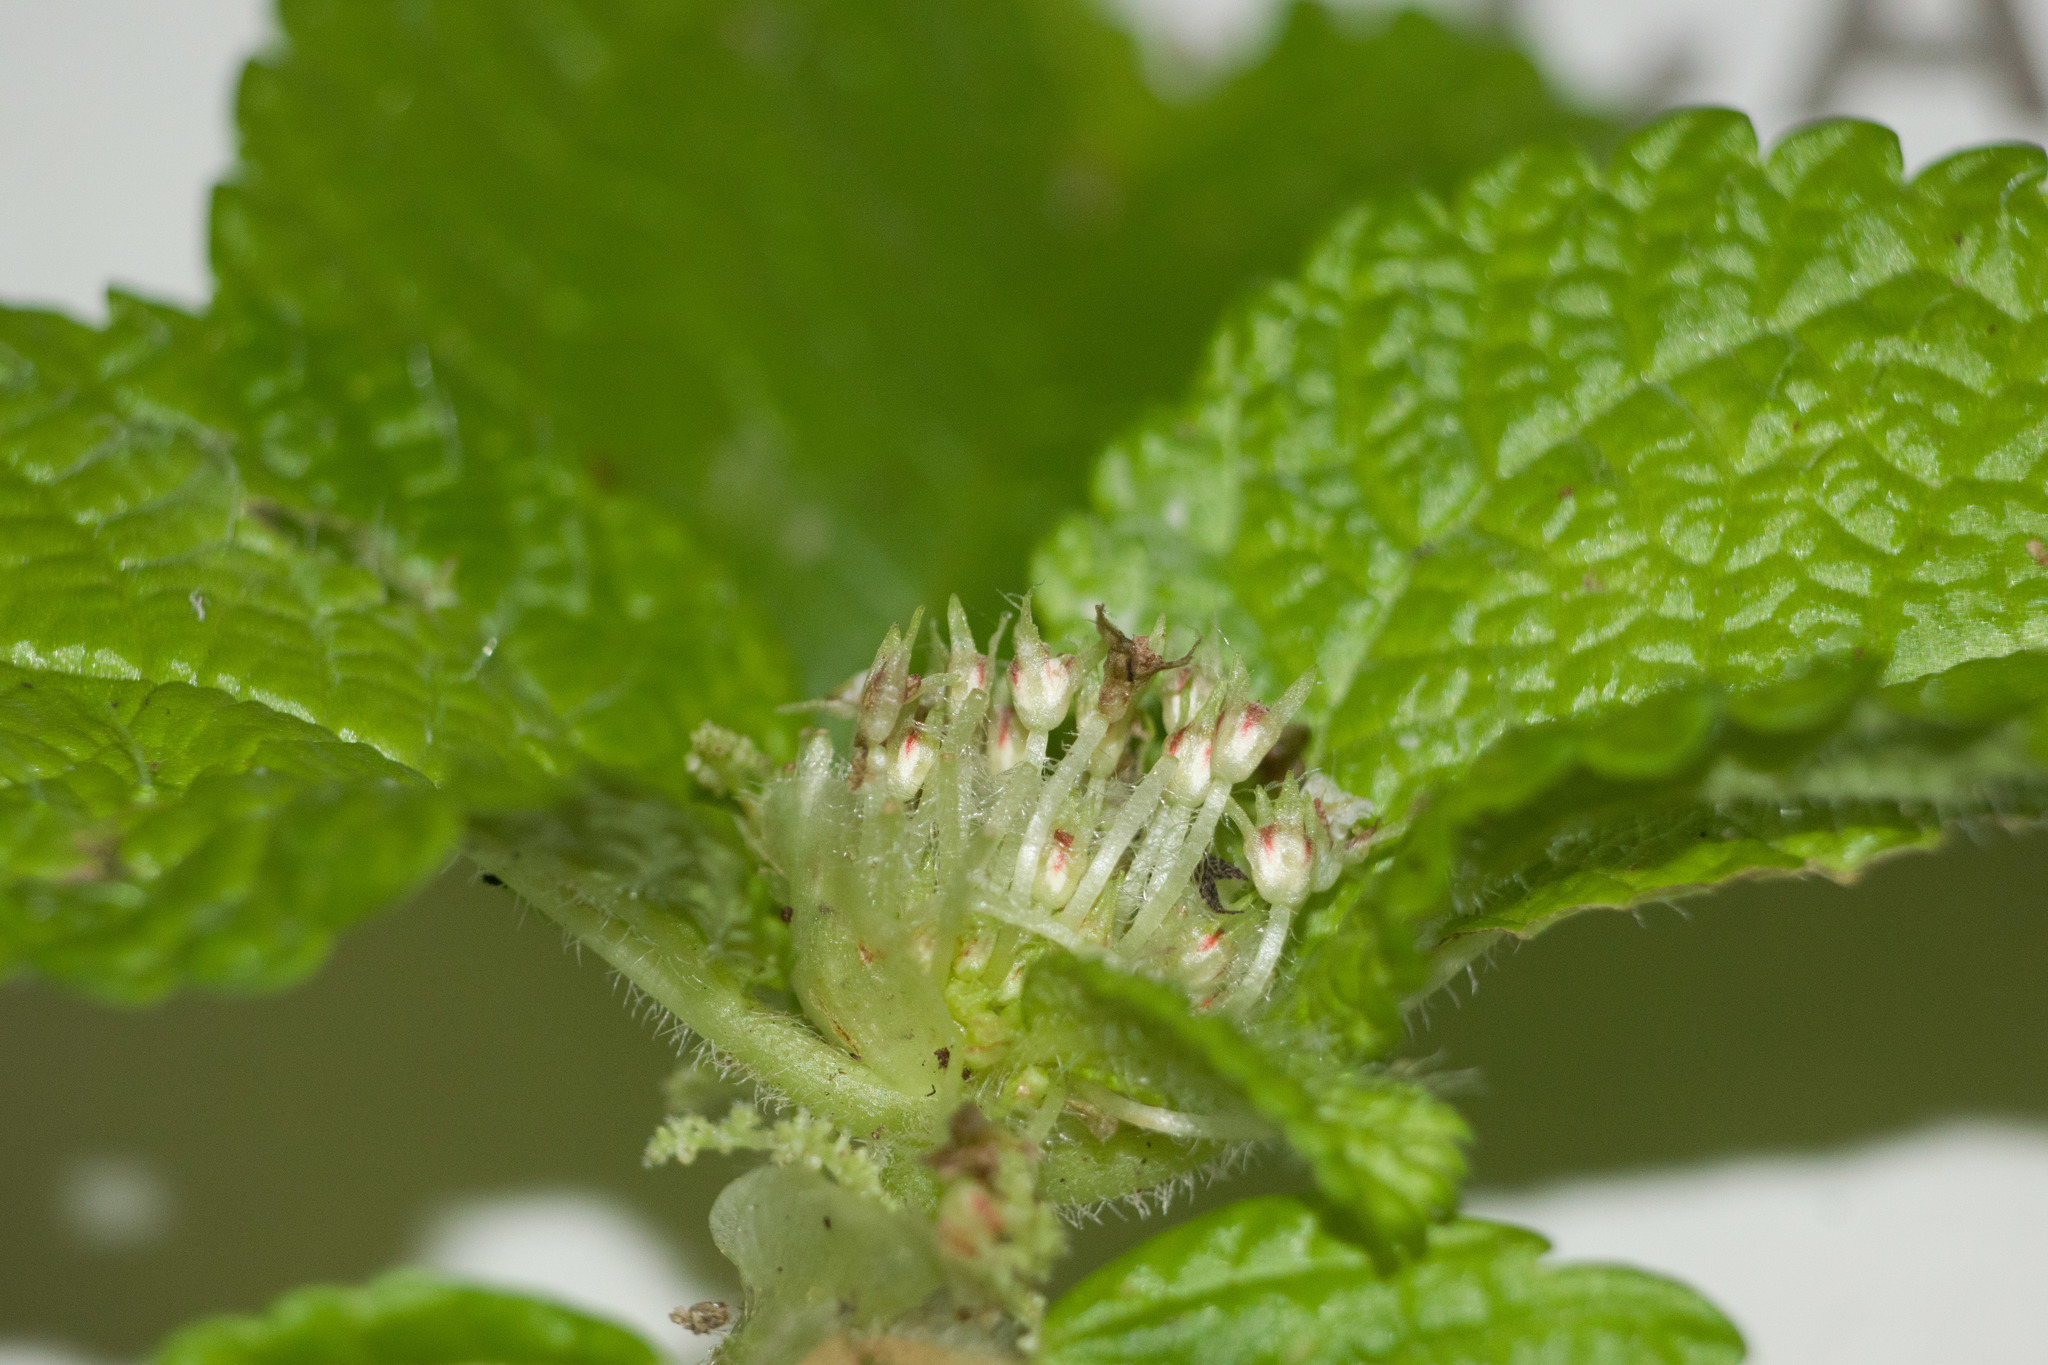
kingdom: Plantae
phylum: Tracheophyta
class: Magnoliopsida
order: Rosales
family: Urticaceae
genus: Pilea
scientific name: Pilea nummulariifolia
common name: Creeping-charlie
